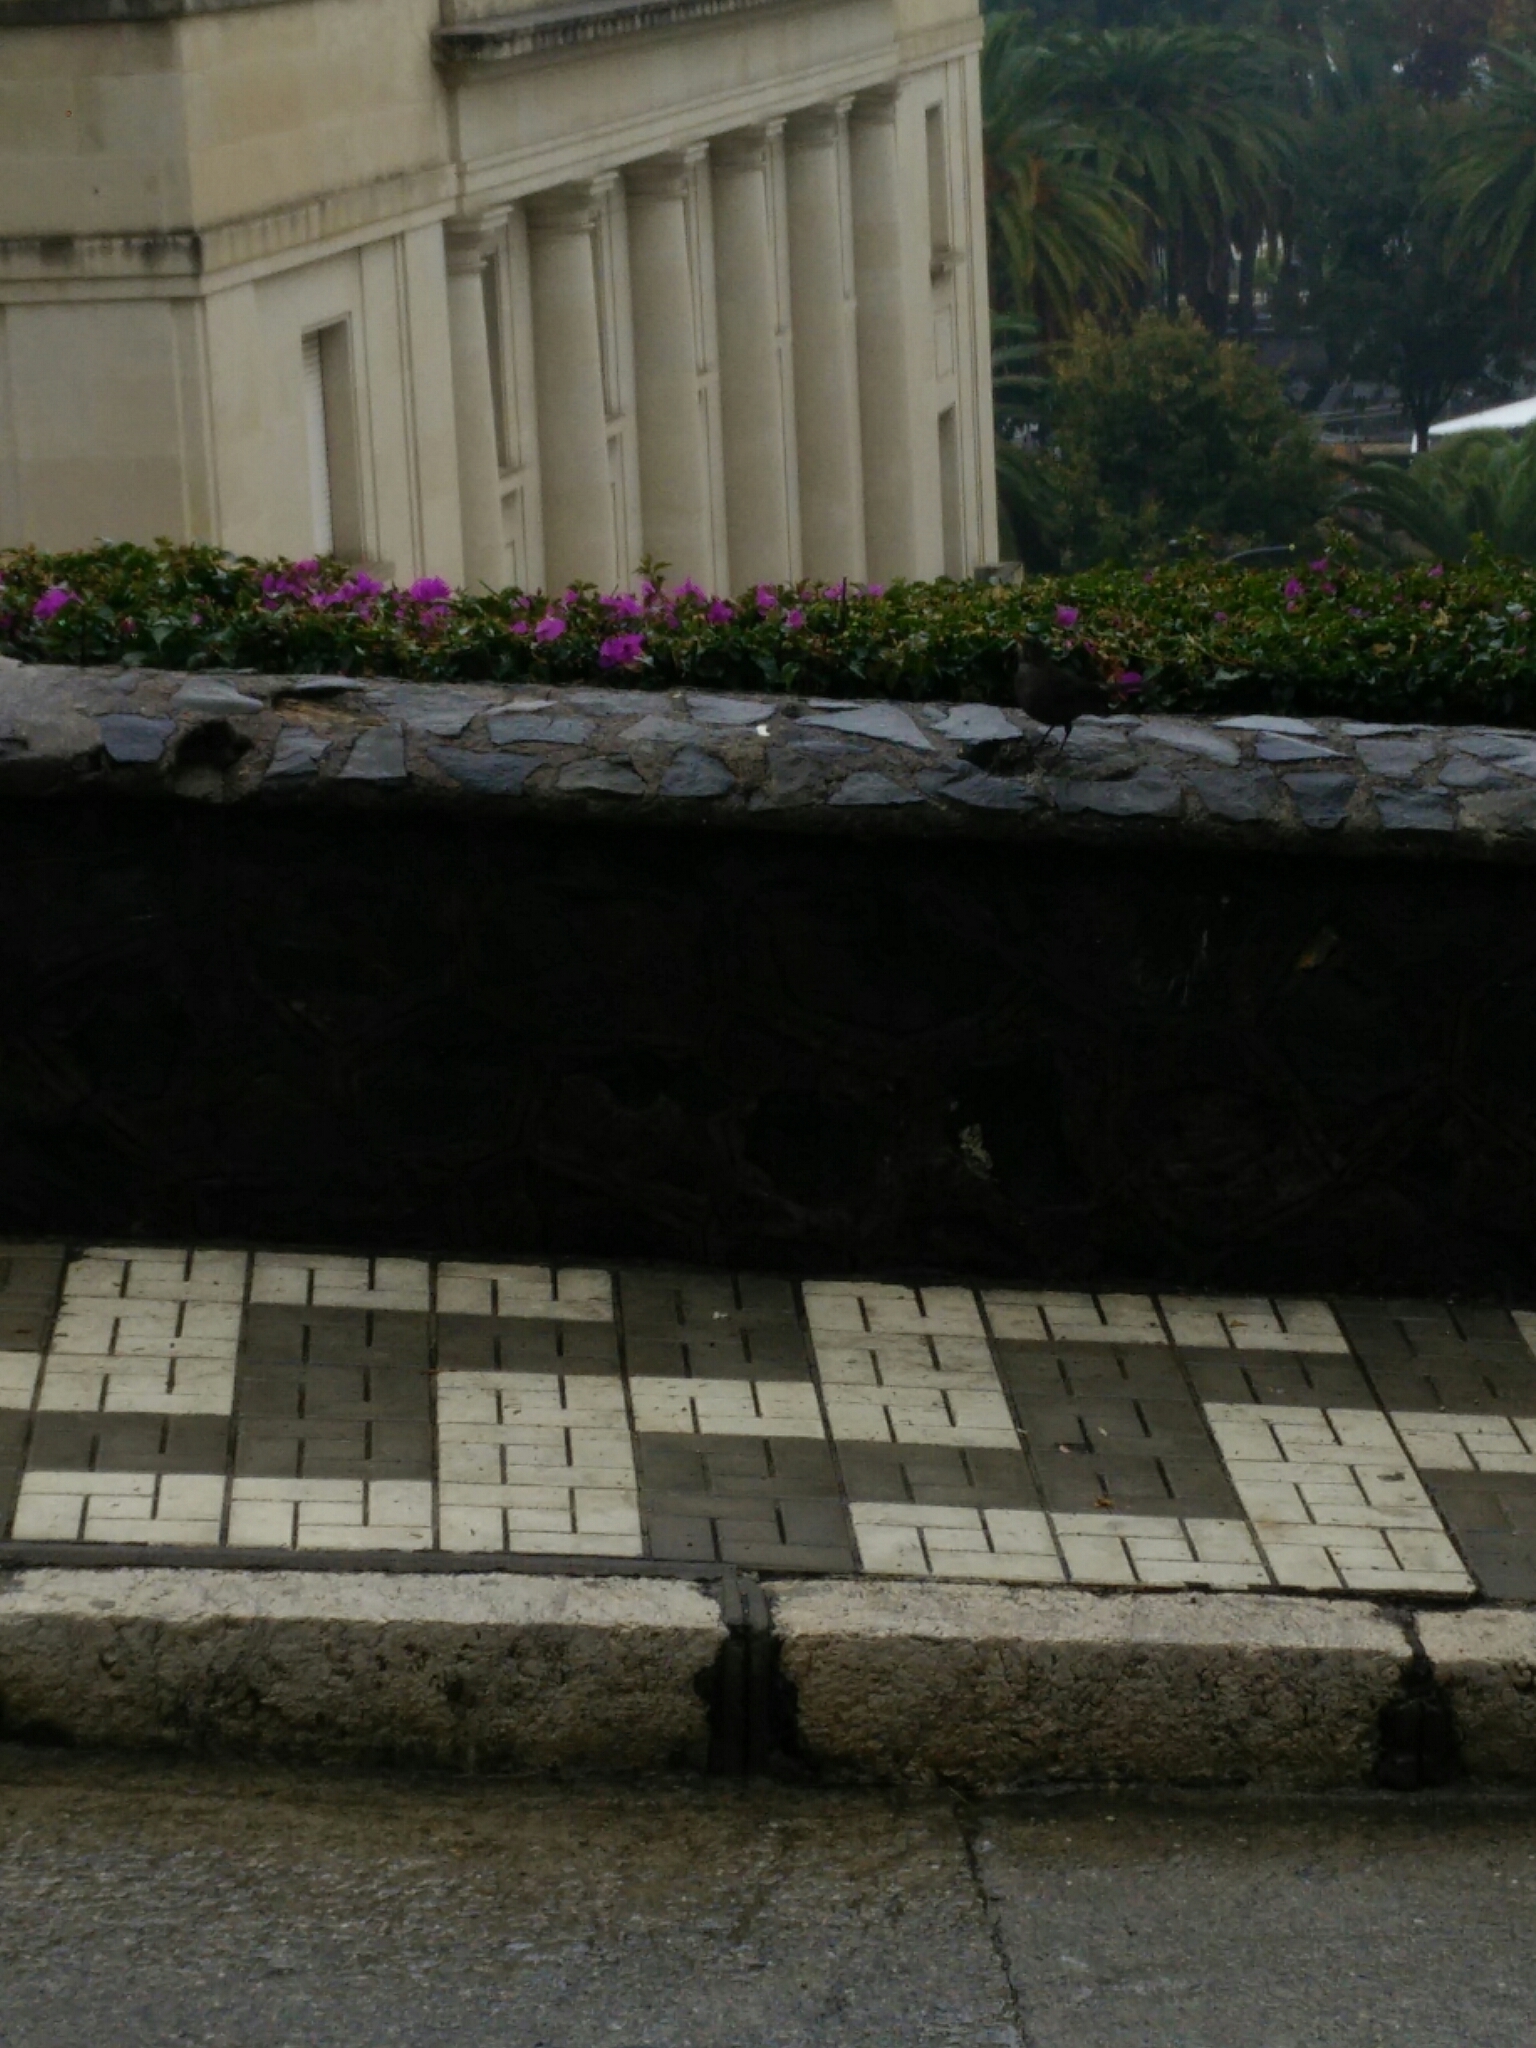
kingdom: Animalia
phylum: Chordata
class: Aves
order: Passeriformes
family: Turdidae
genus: Turdus
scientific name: Turdus merula
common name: Common blackbird
